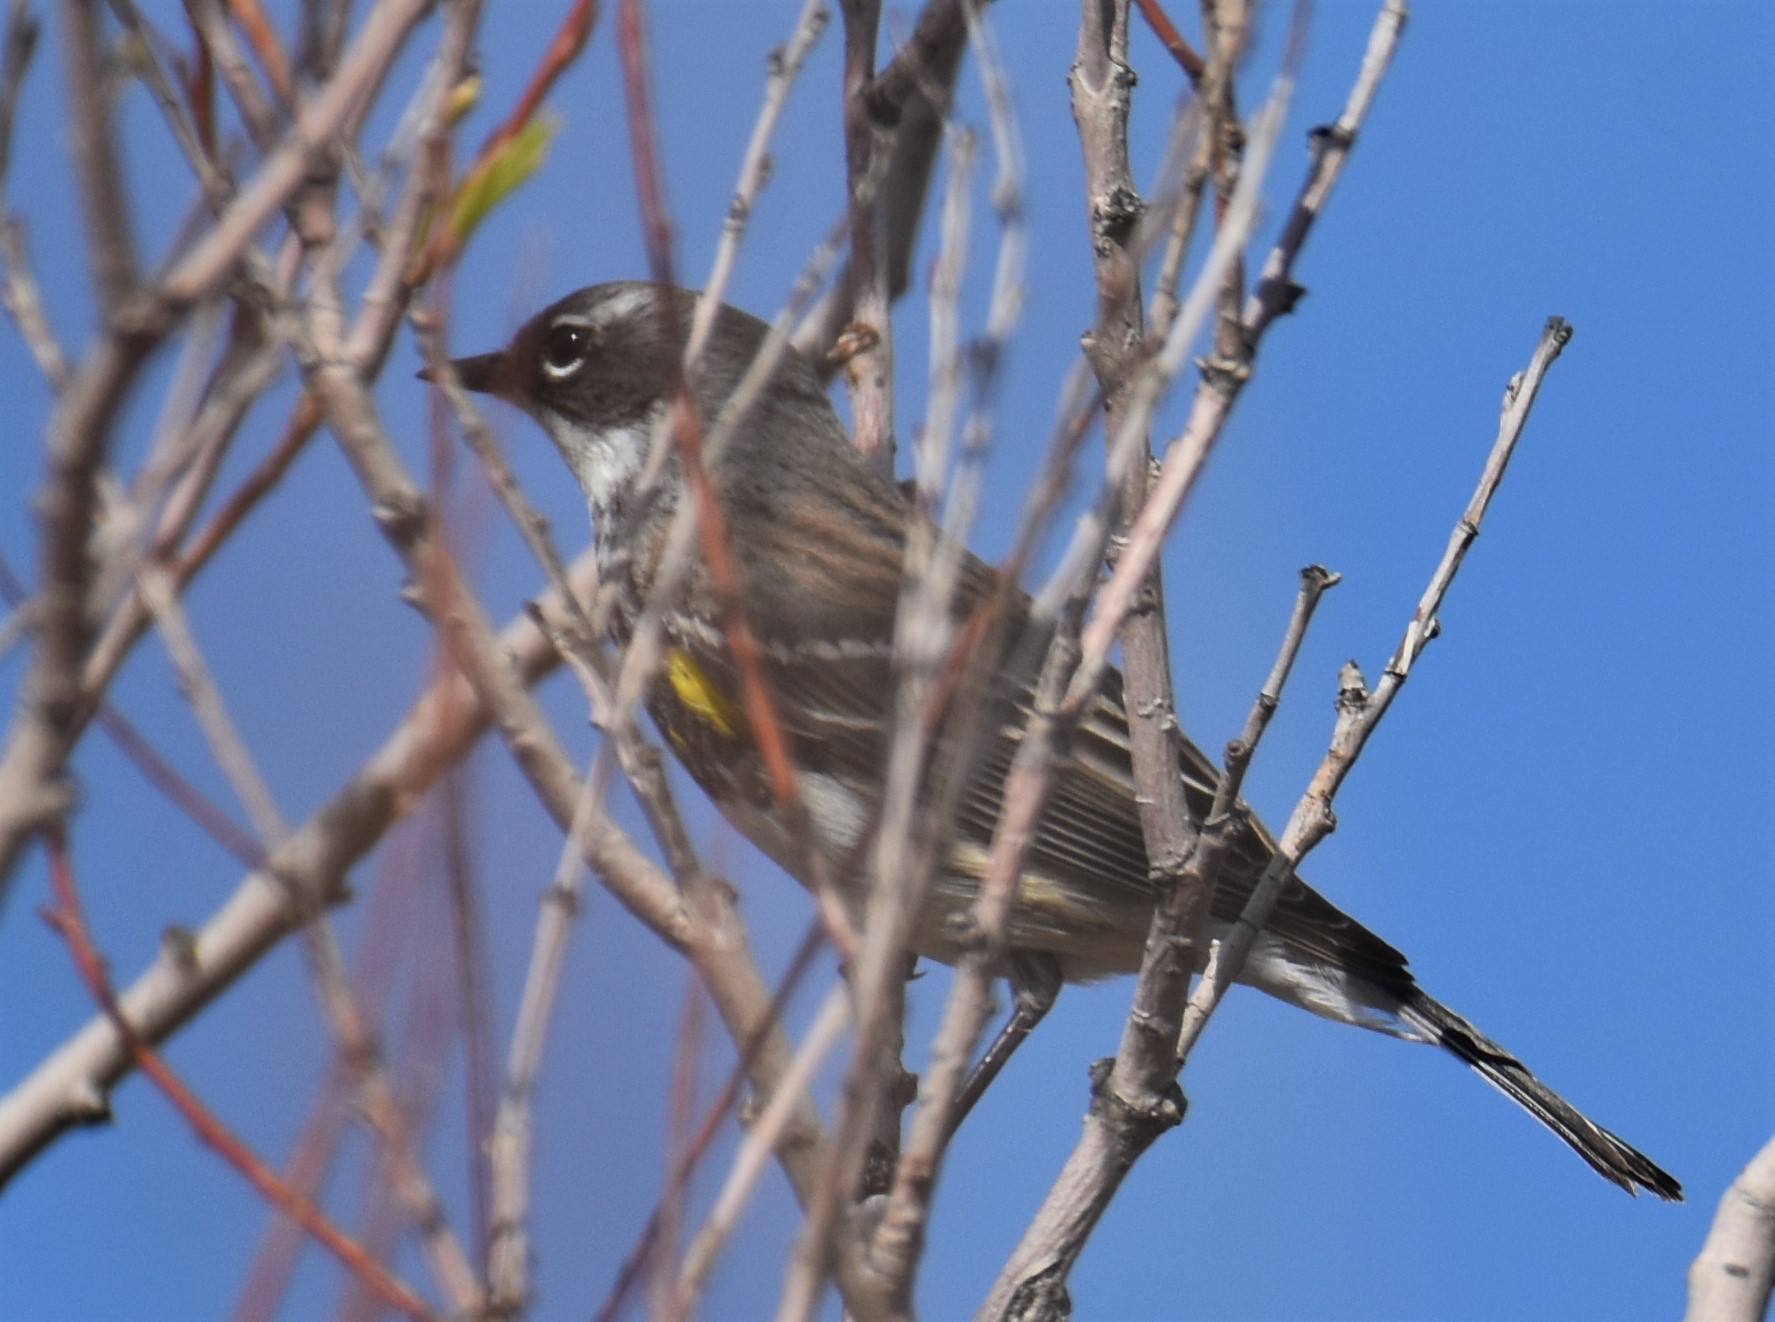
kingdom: Animalia
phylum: Chordata
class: Aves
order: Passeriformes
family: Parulidae
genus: Setophaga
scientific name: Setophaga coronata
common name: Myrtle warbler
